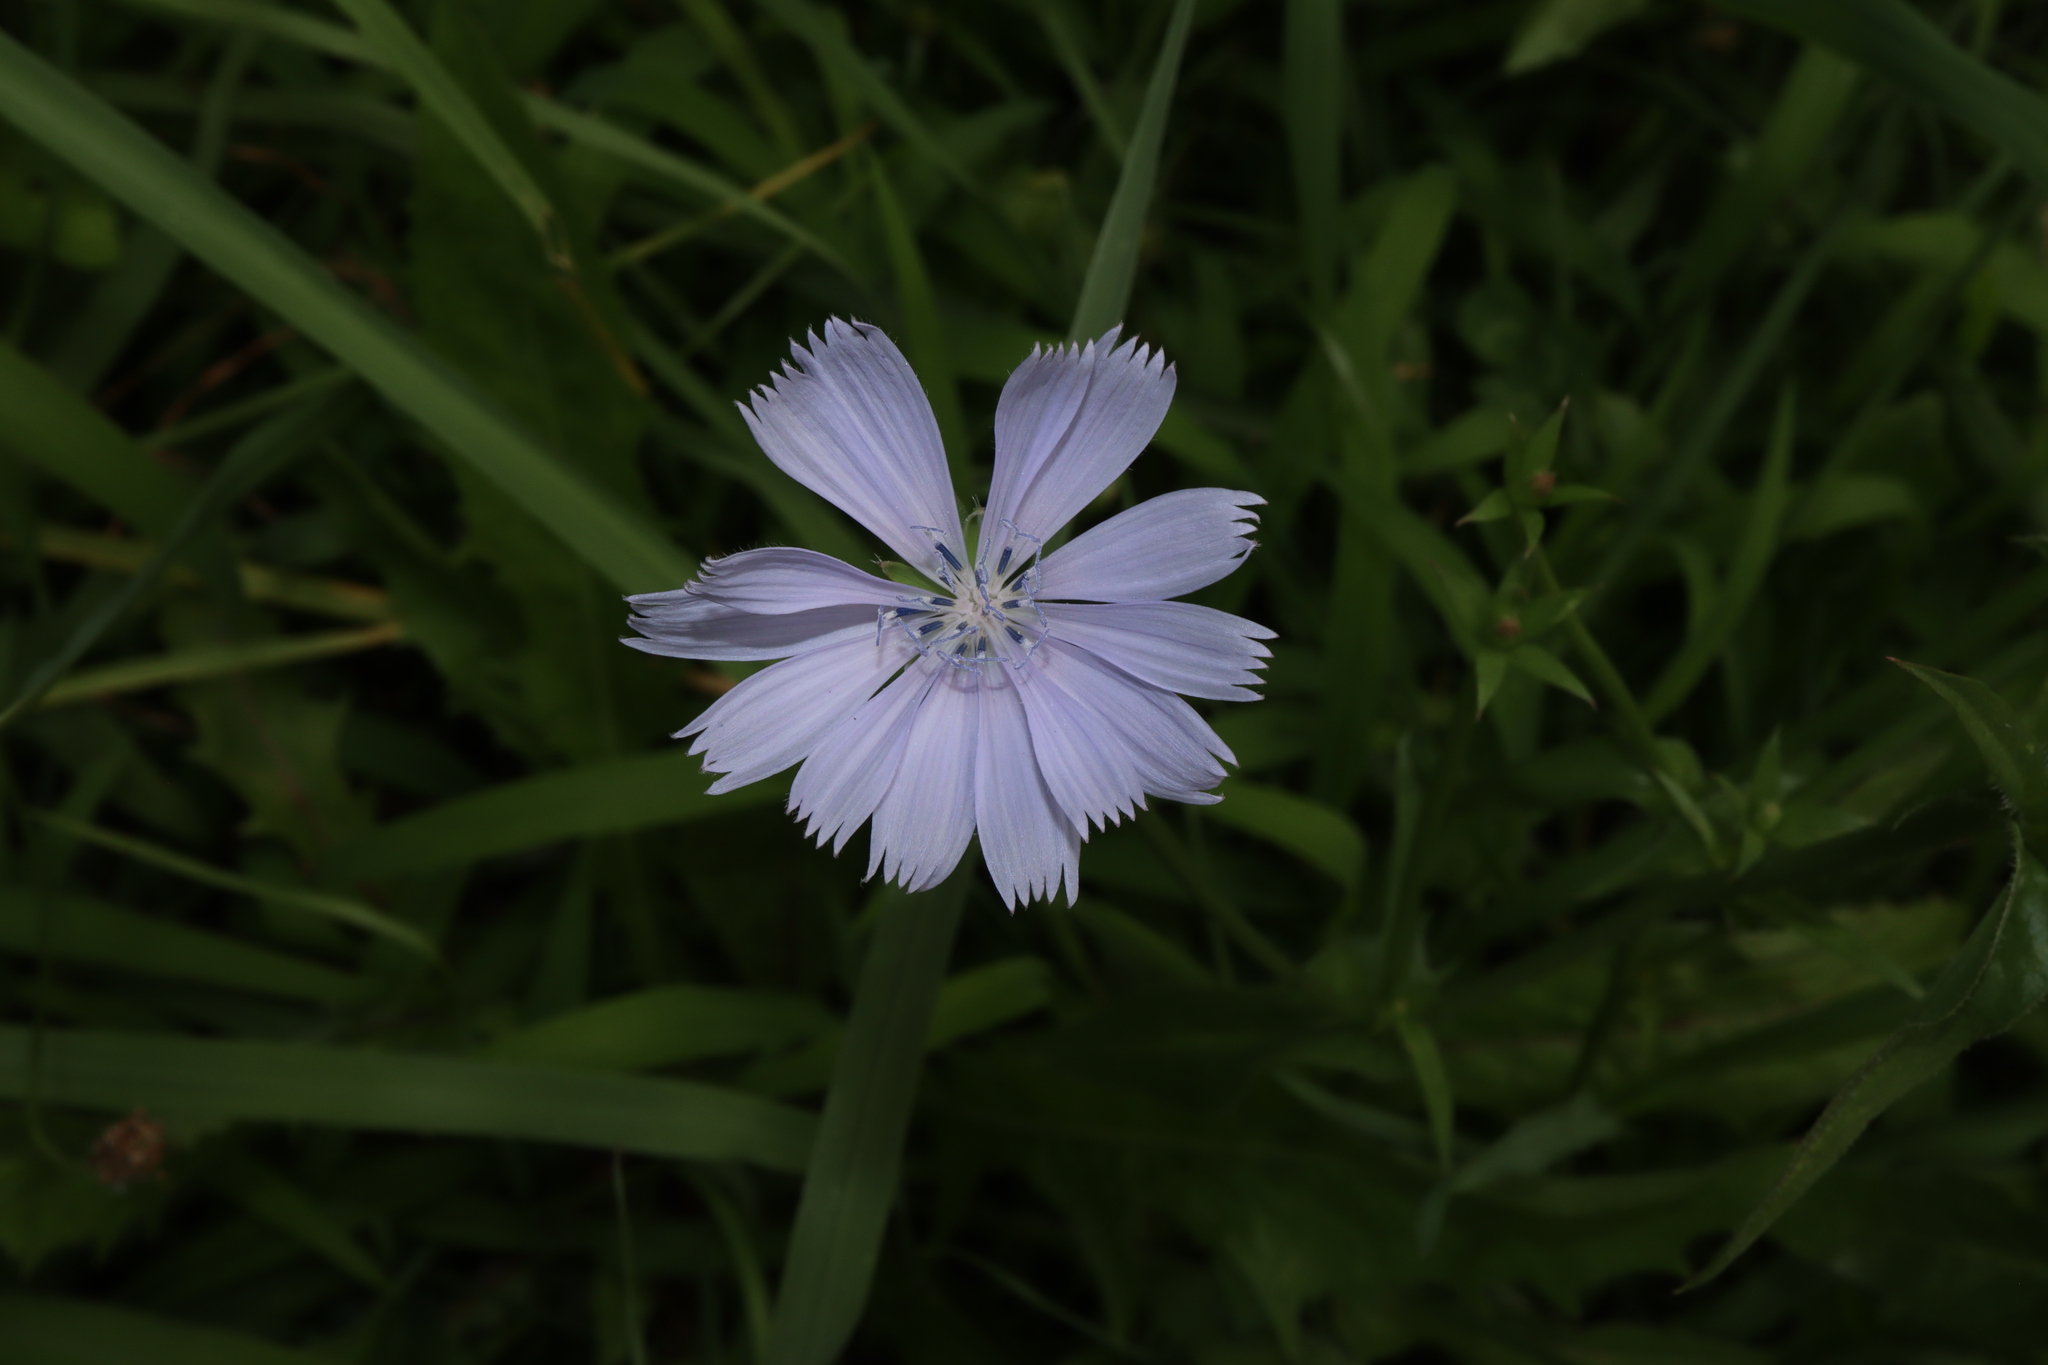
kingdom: Plantae
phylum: Tracheophyta
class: Magnoliopsida
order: Asterales
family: Asteraceae
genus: Cichorium
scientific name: Cichorium intybus
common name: Chicory
